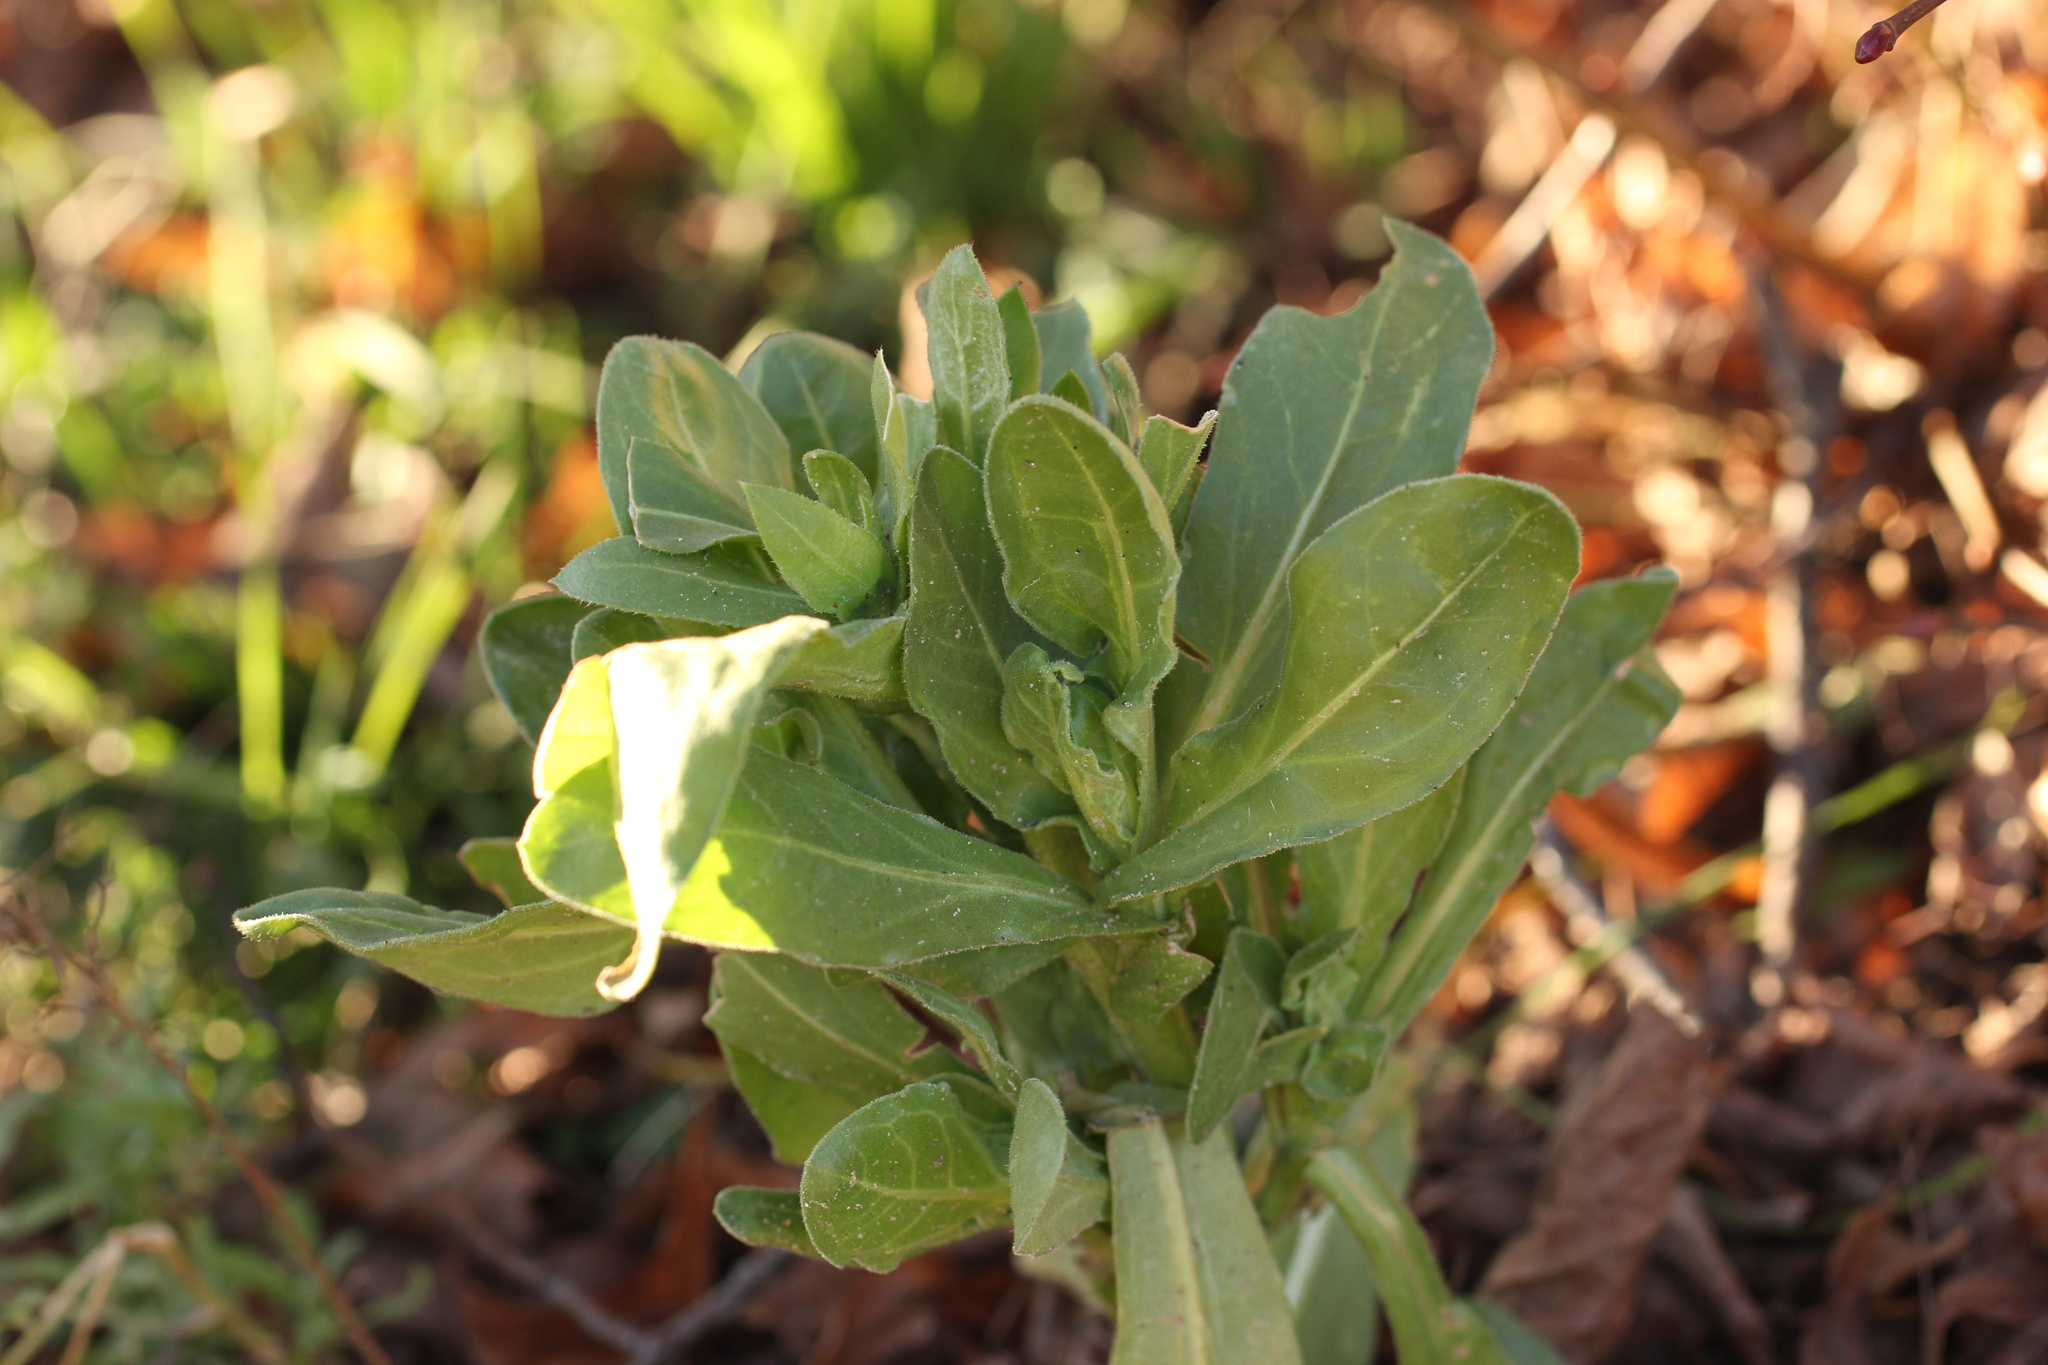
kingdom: Plantae
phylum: Tracheophyta
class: Magnoliopsida
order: Brassicales
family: Brassicaceae
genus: Lepidium
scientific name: Lepidium draba
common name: Hoary cress
